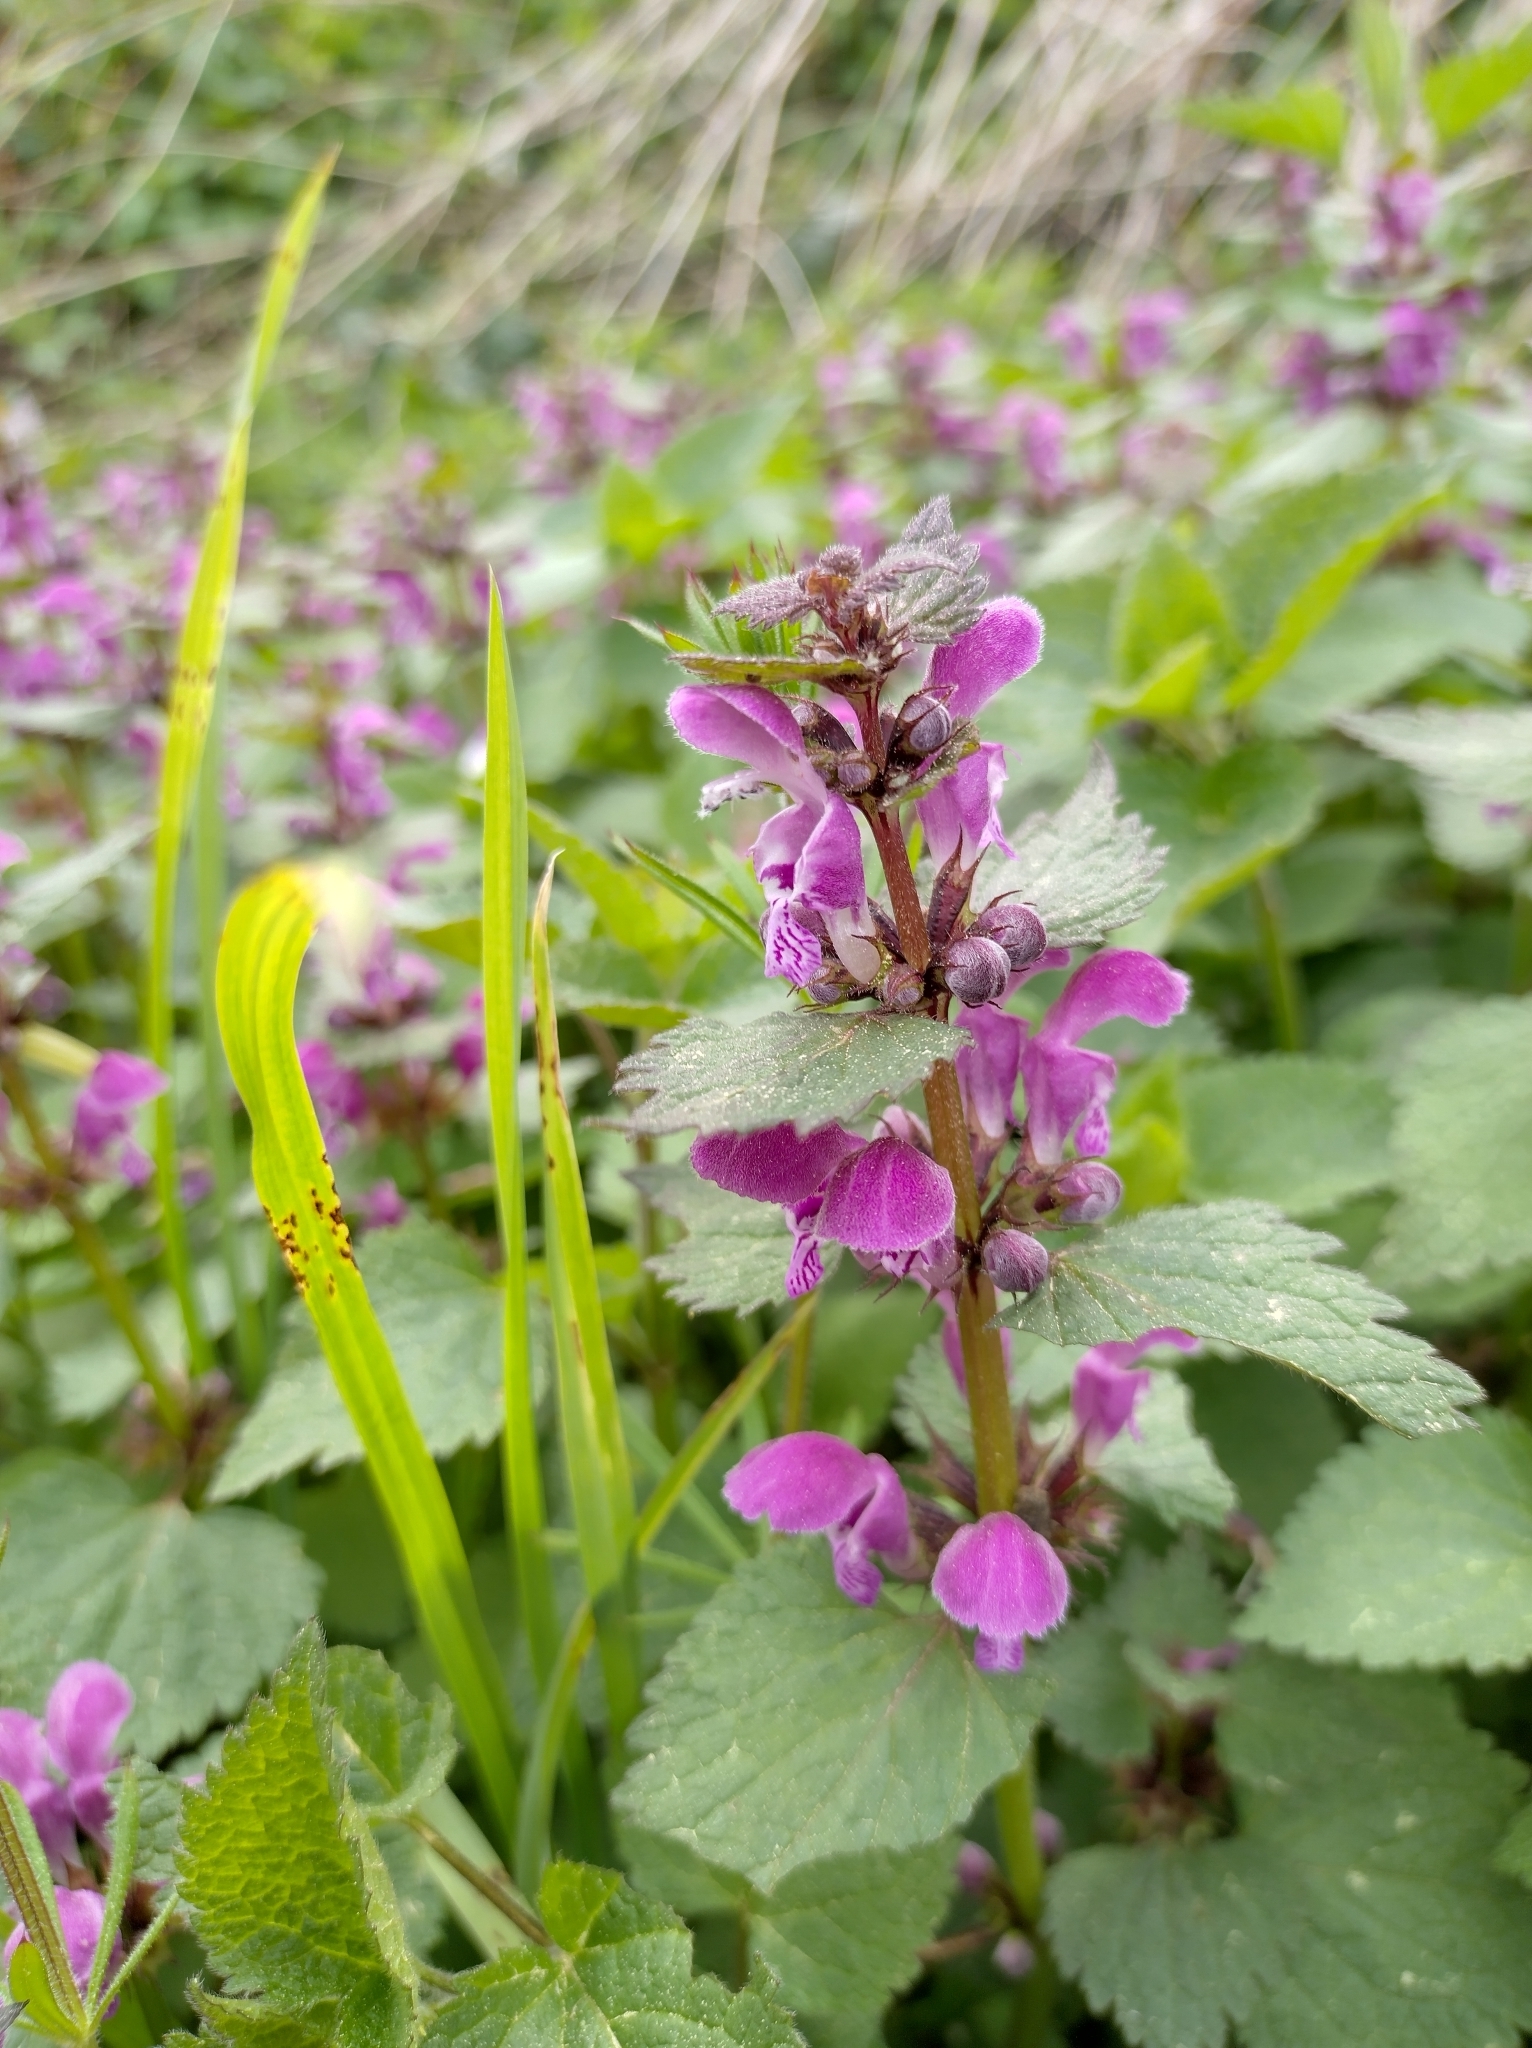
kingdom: Plantae
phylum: Tracheophyta
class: Magnoliopsida
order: Lamiales
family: Lamiaceae
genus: Lamium
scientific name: Lamium maculatum
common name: Spotted dead-nettle
